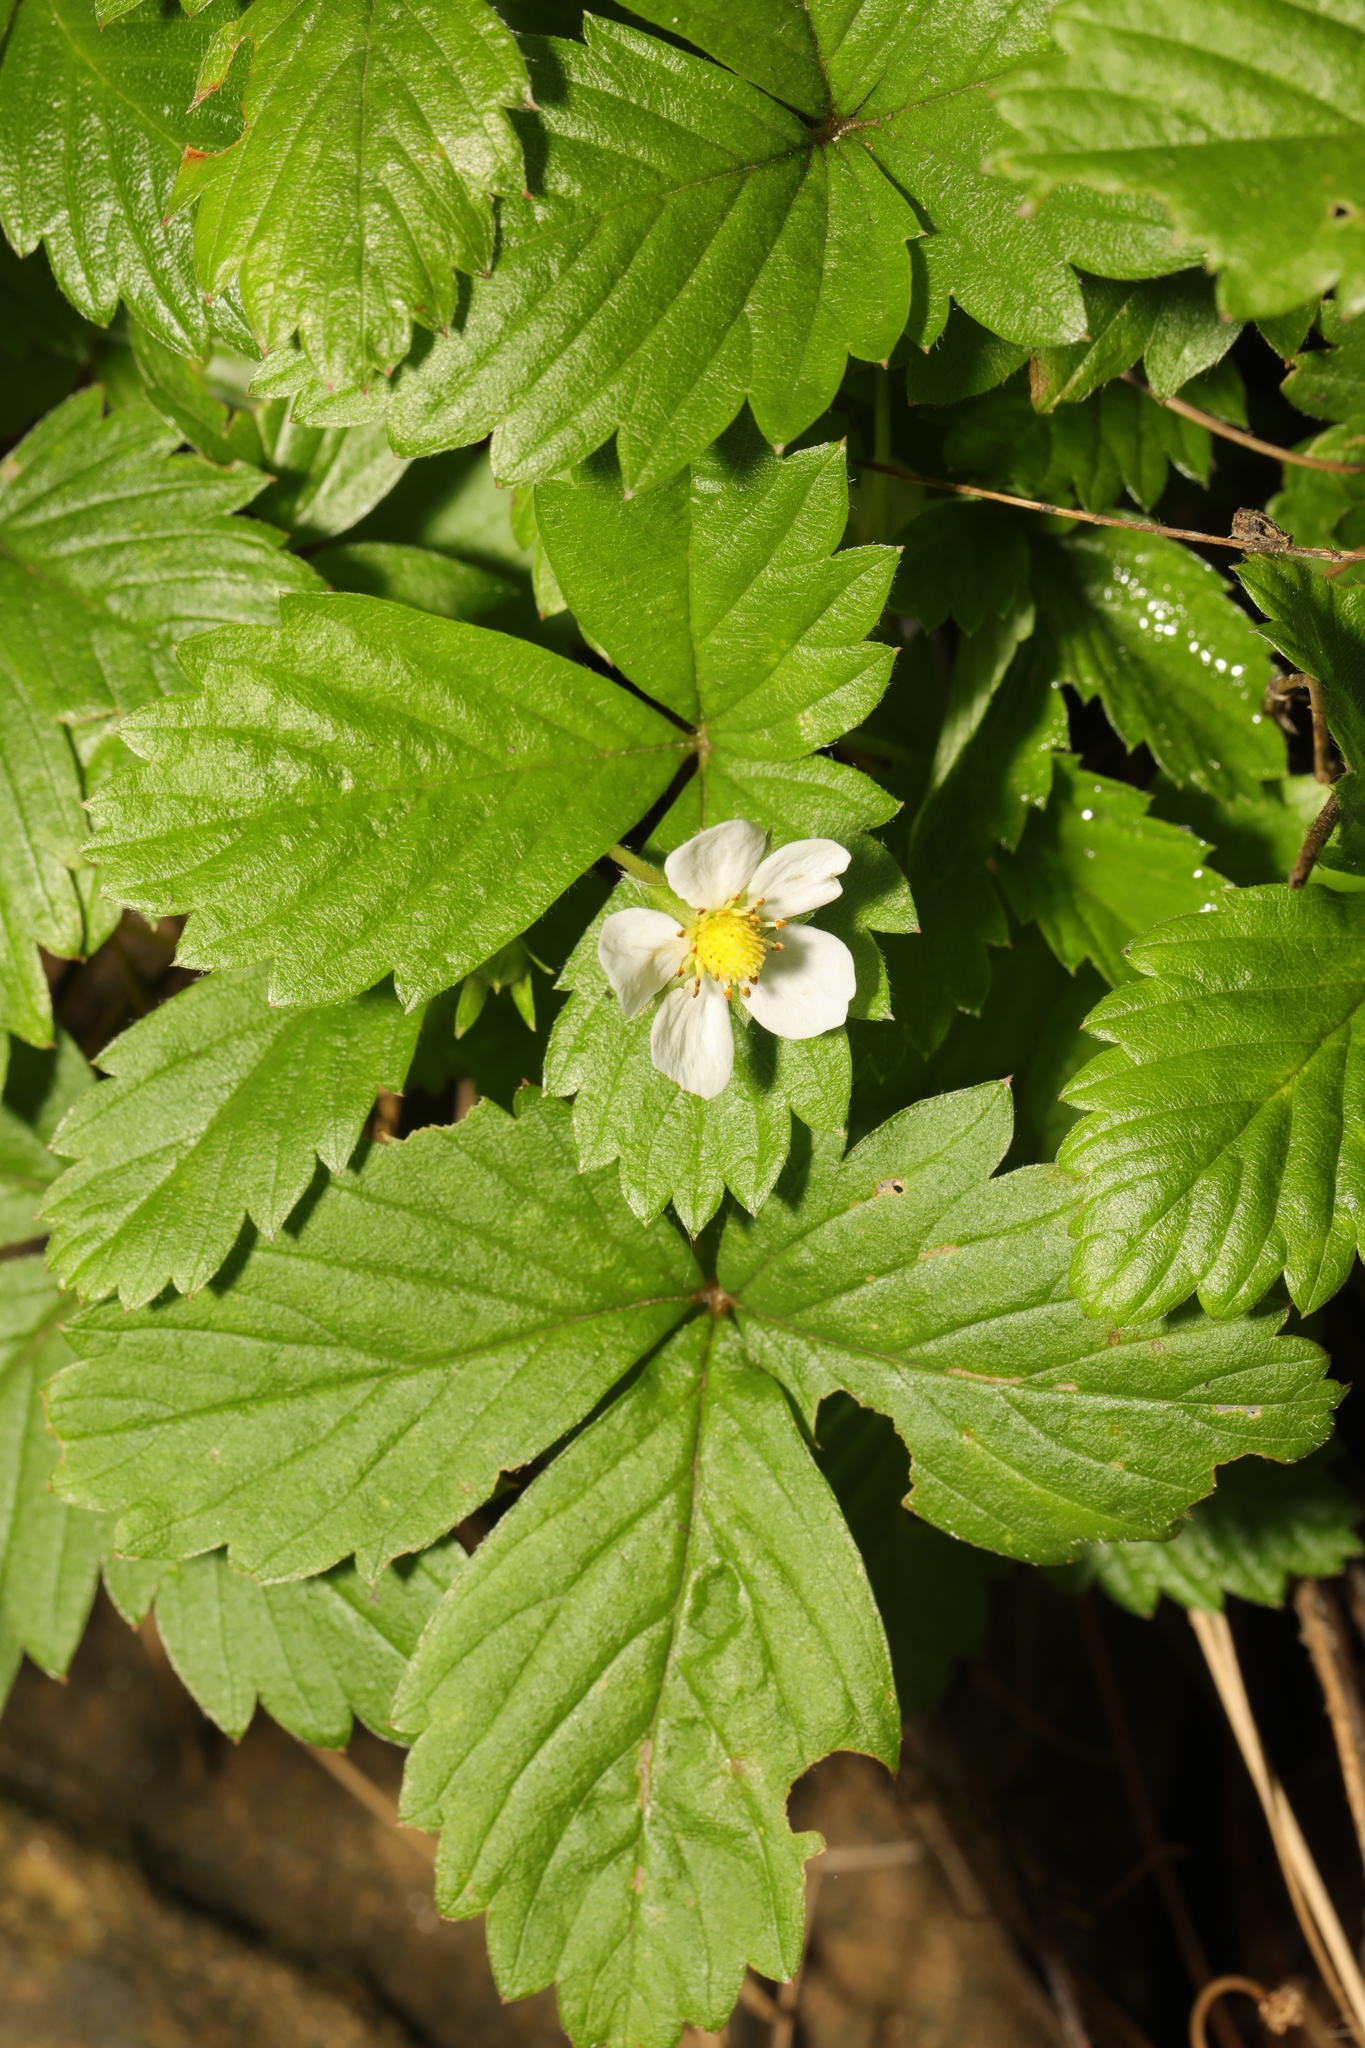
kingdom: Plantae
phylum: Tracheophyta
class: Magnoliopsida
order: Rosales
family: Rosaceae
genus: Fragaria
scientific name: Fragaria vesca
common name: Wild strawberry
